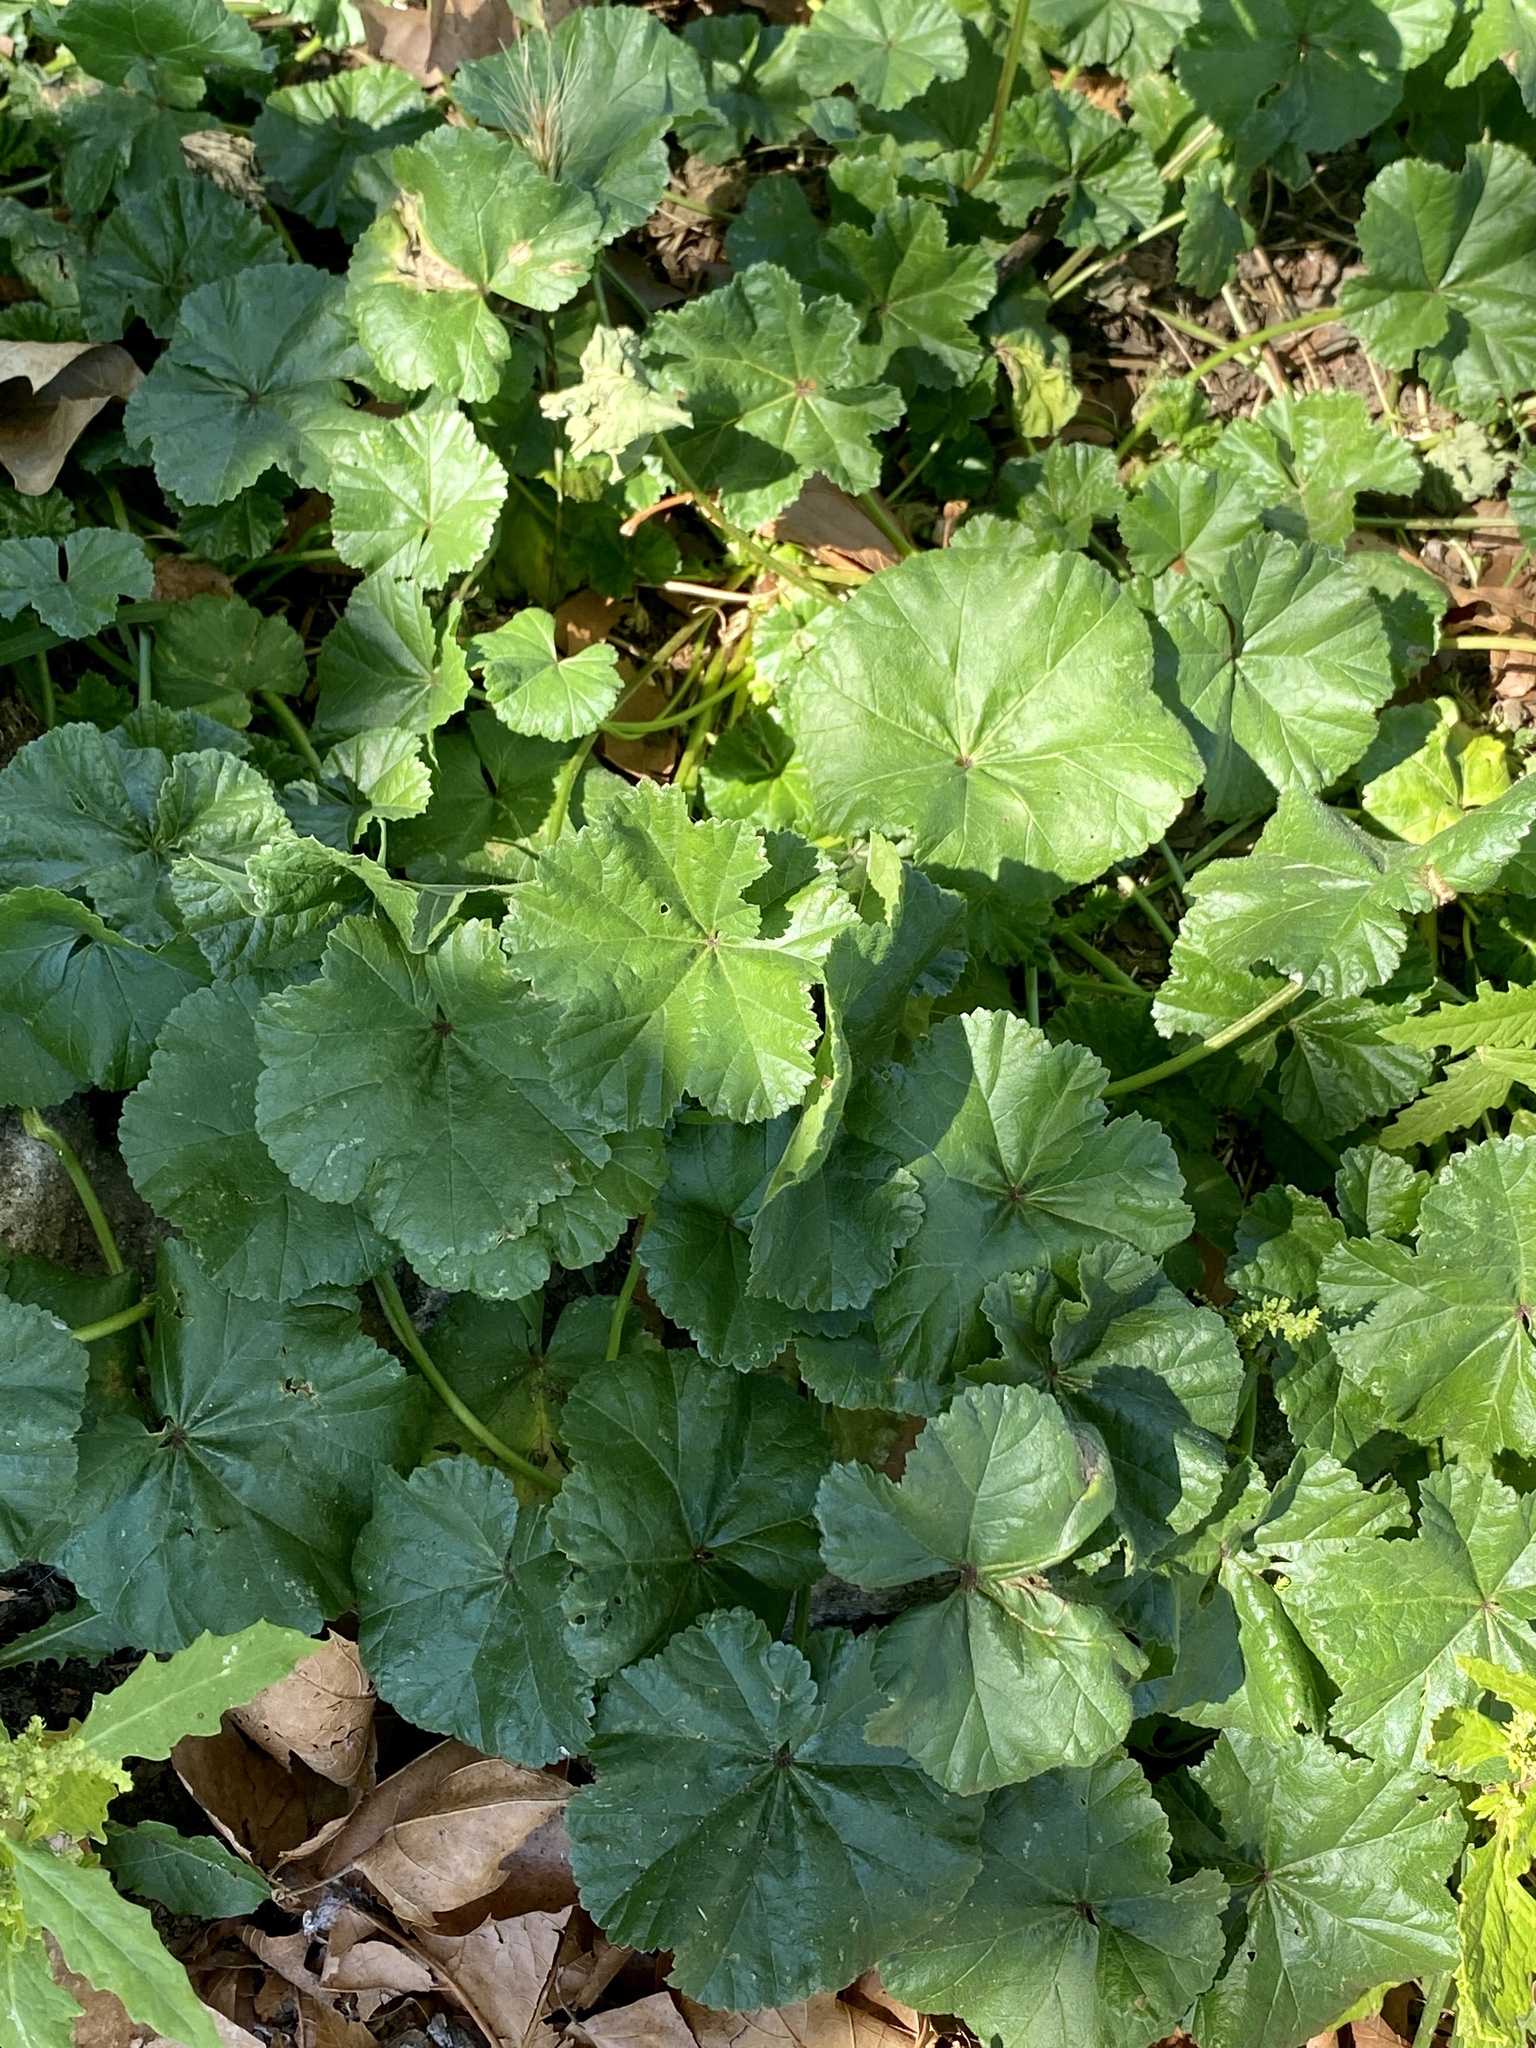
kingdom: Plantae
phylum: Tracheophyta
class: Magnoliopsida
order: Malvales
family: Malvaceae
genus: Malva
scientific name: Malva neglecta
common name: Common mallow
